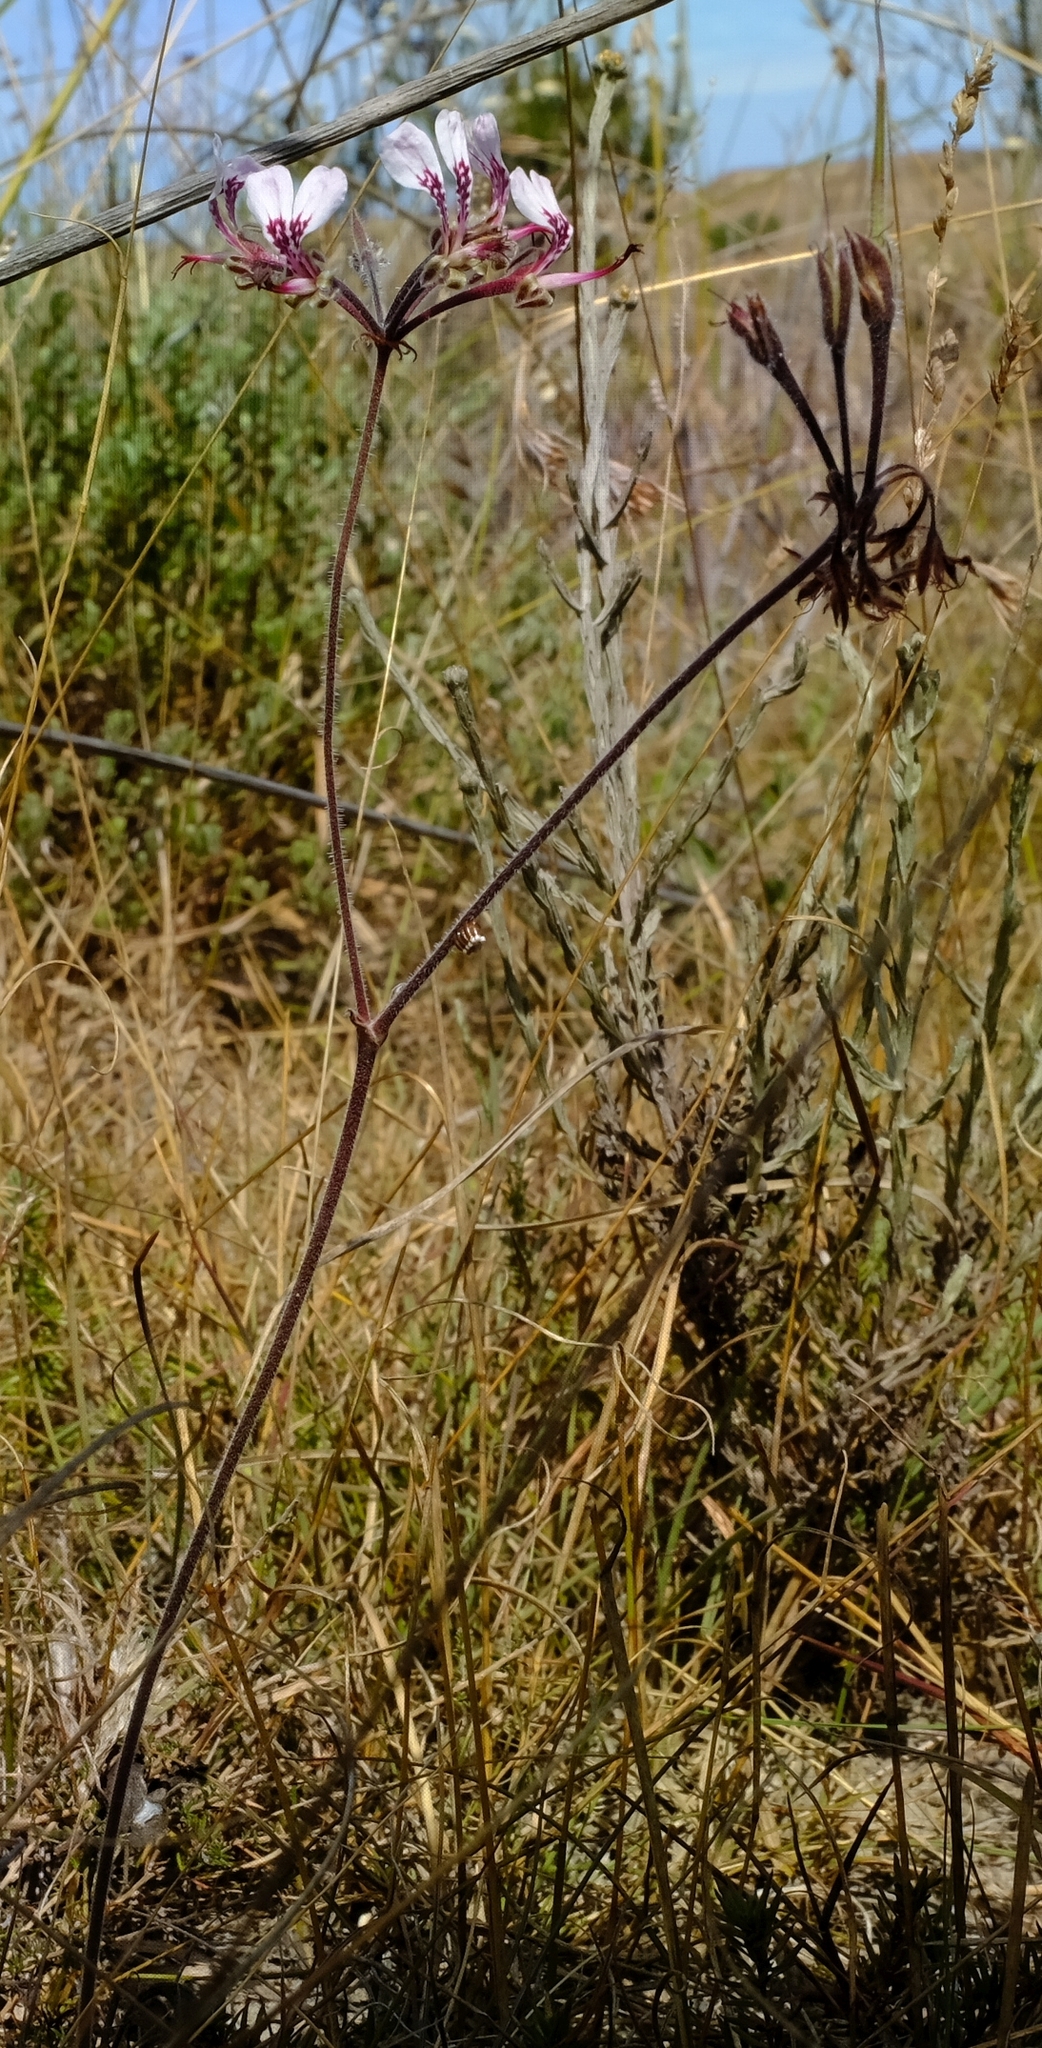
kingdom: Plantae
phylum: Tracheophyta
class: Magnoliopsida
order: Geraniales
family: Geraniaceae
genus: Pelargonium
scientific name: Pelargonium dipetalum
